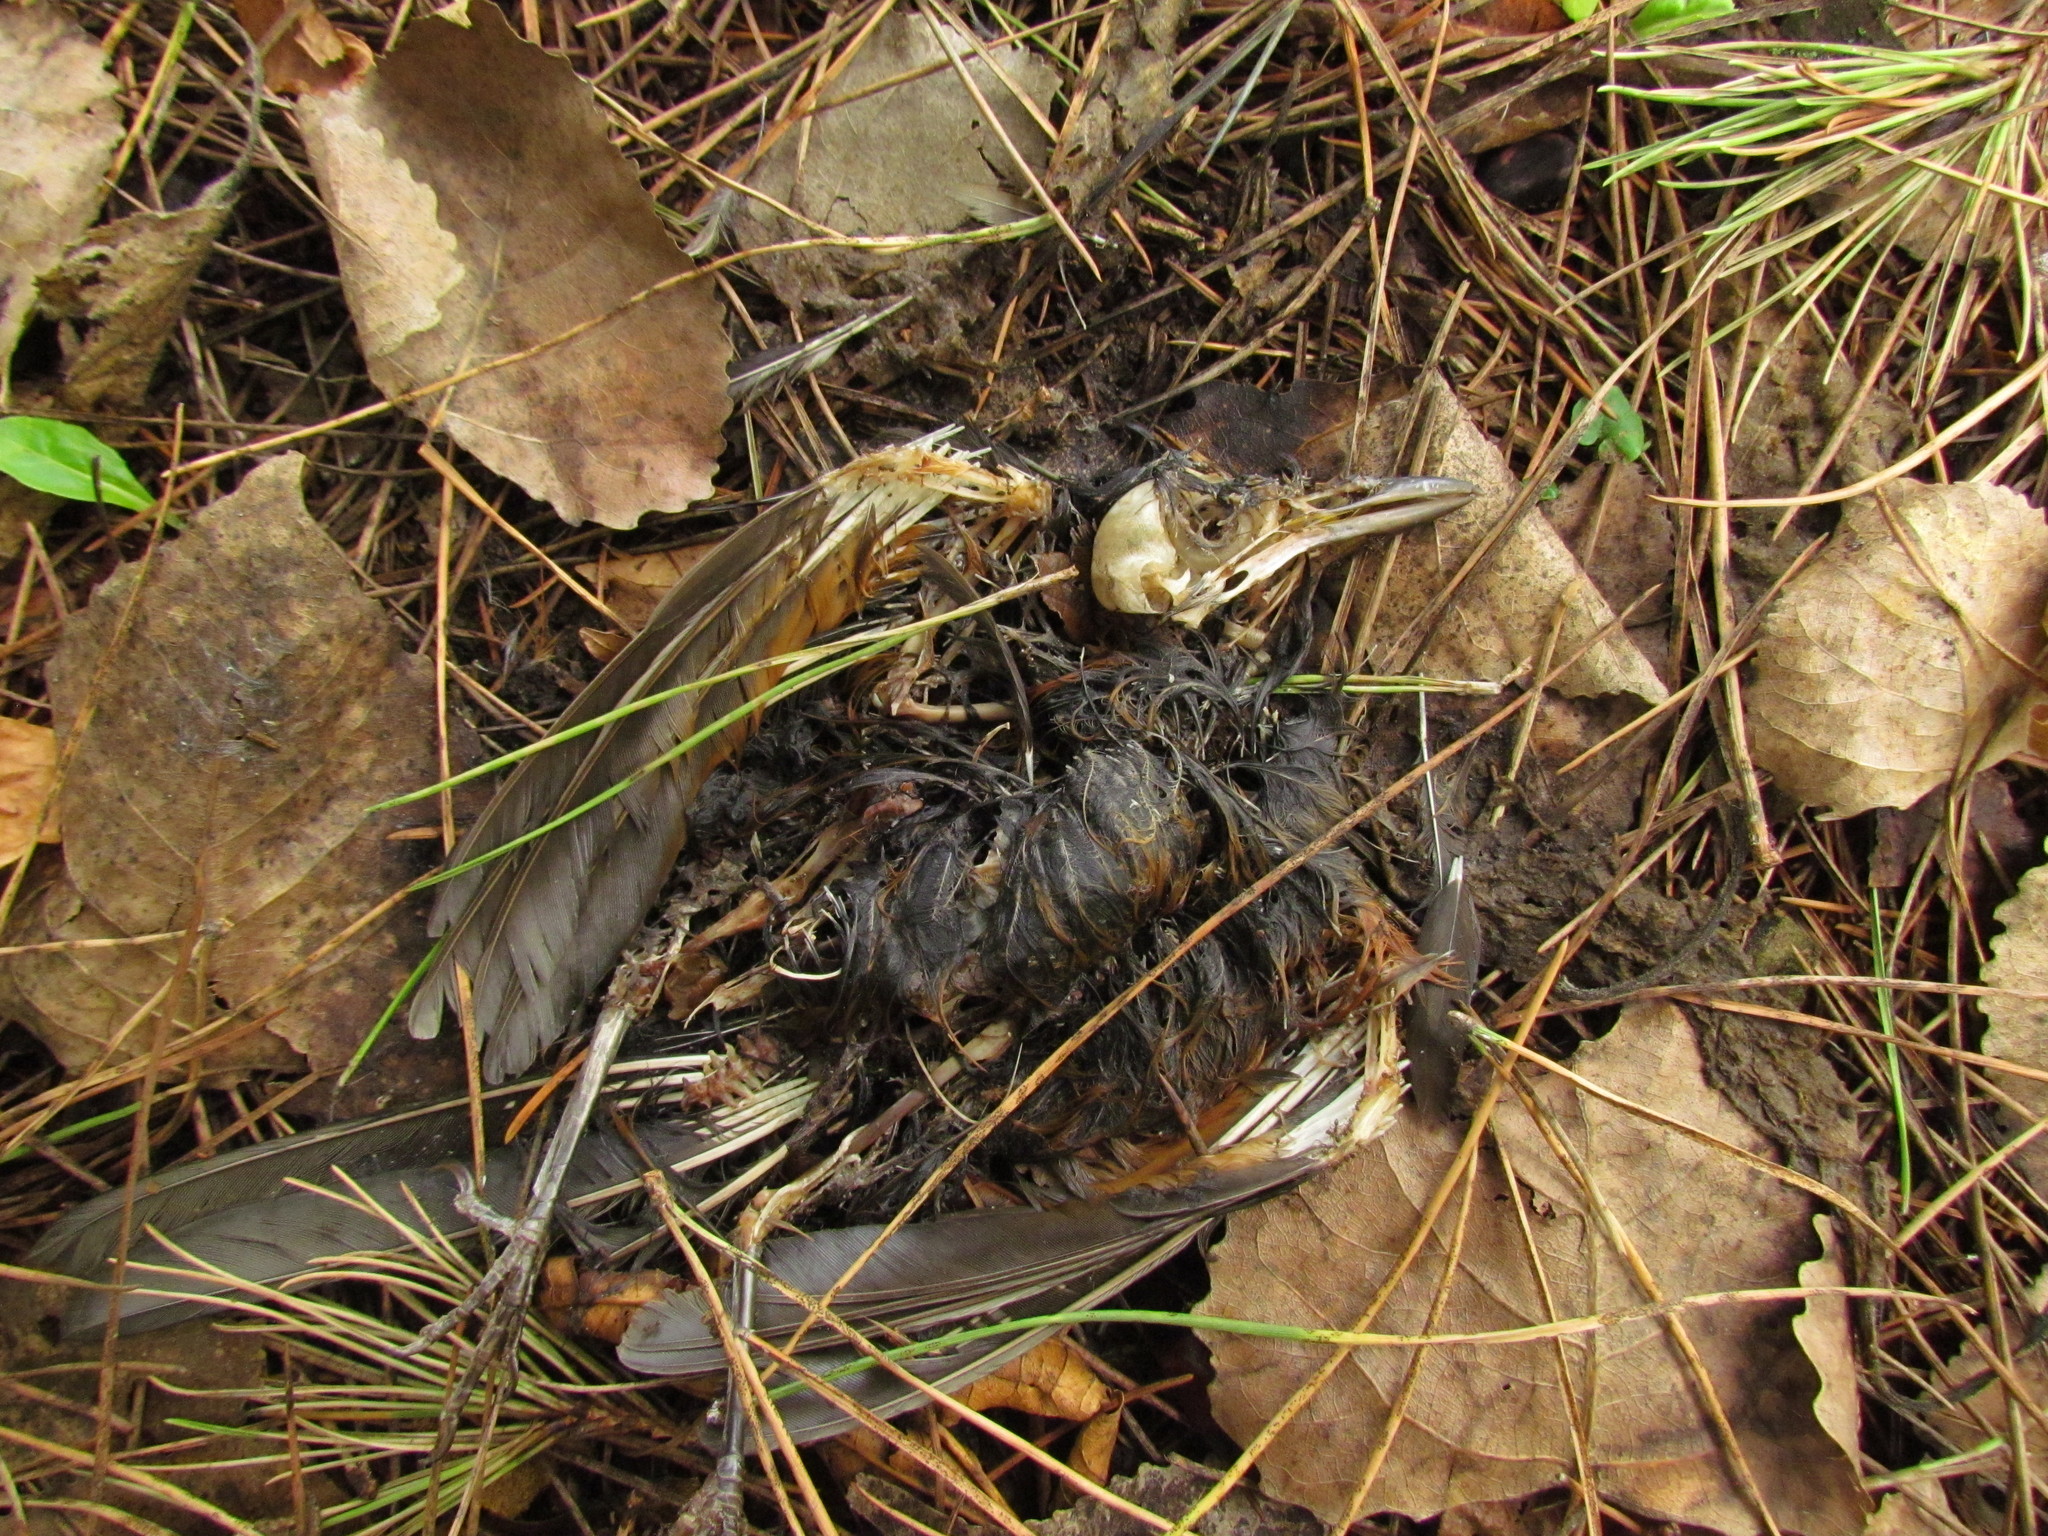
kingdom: Animalia
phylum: Chordata
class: Aves
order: Passeriformes
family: Turdidae
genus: Turdus
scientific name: Turdus rufiventris
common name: Rufous-bellied thrush
